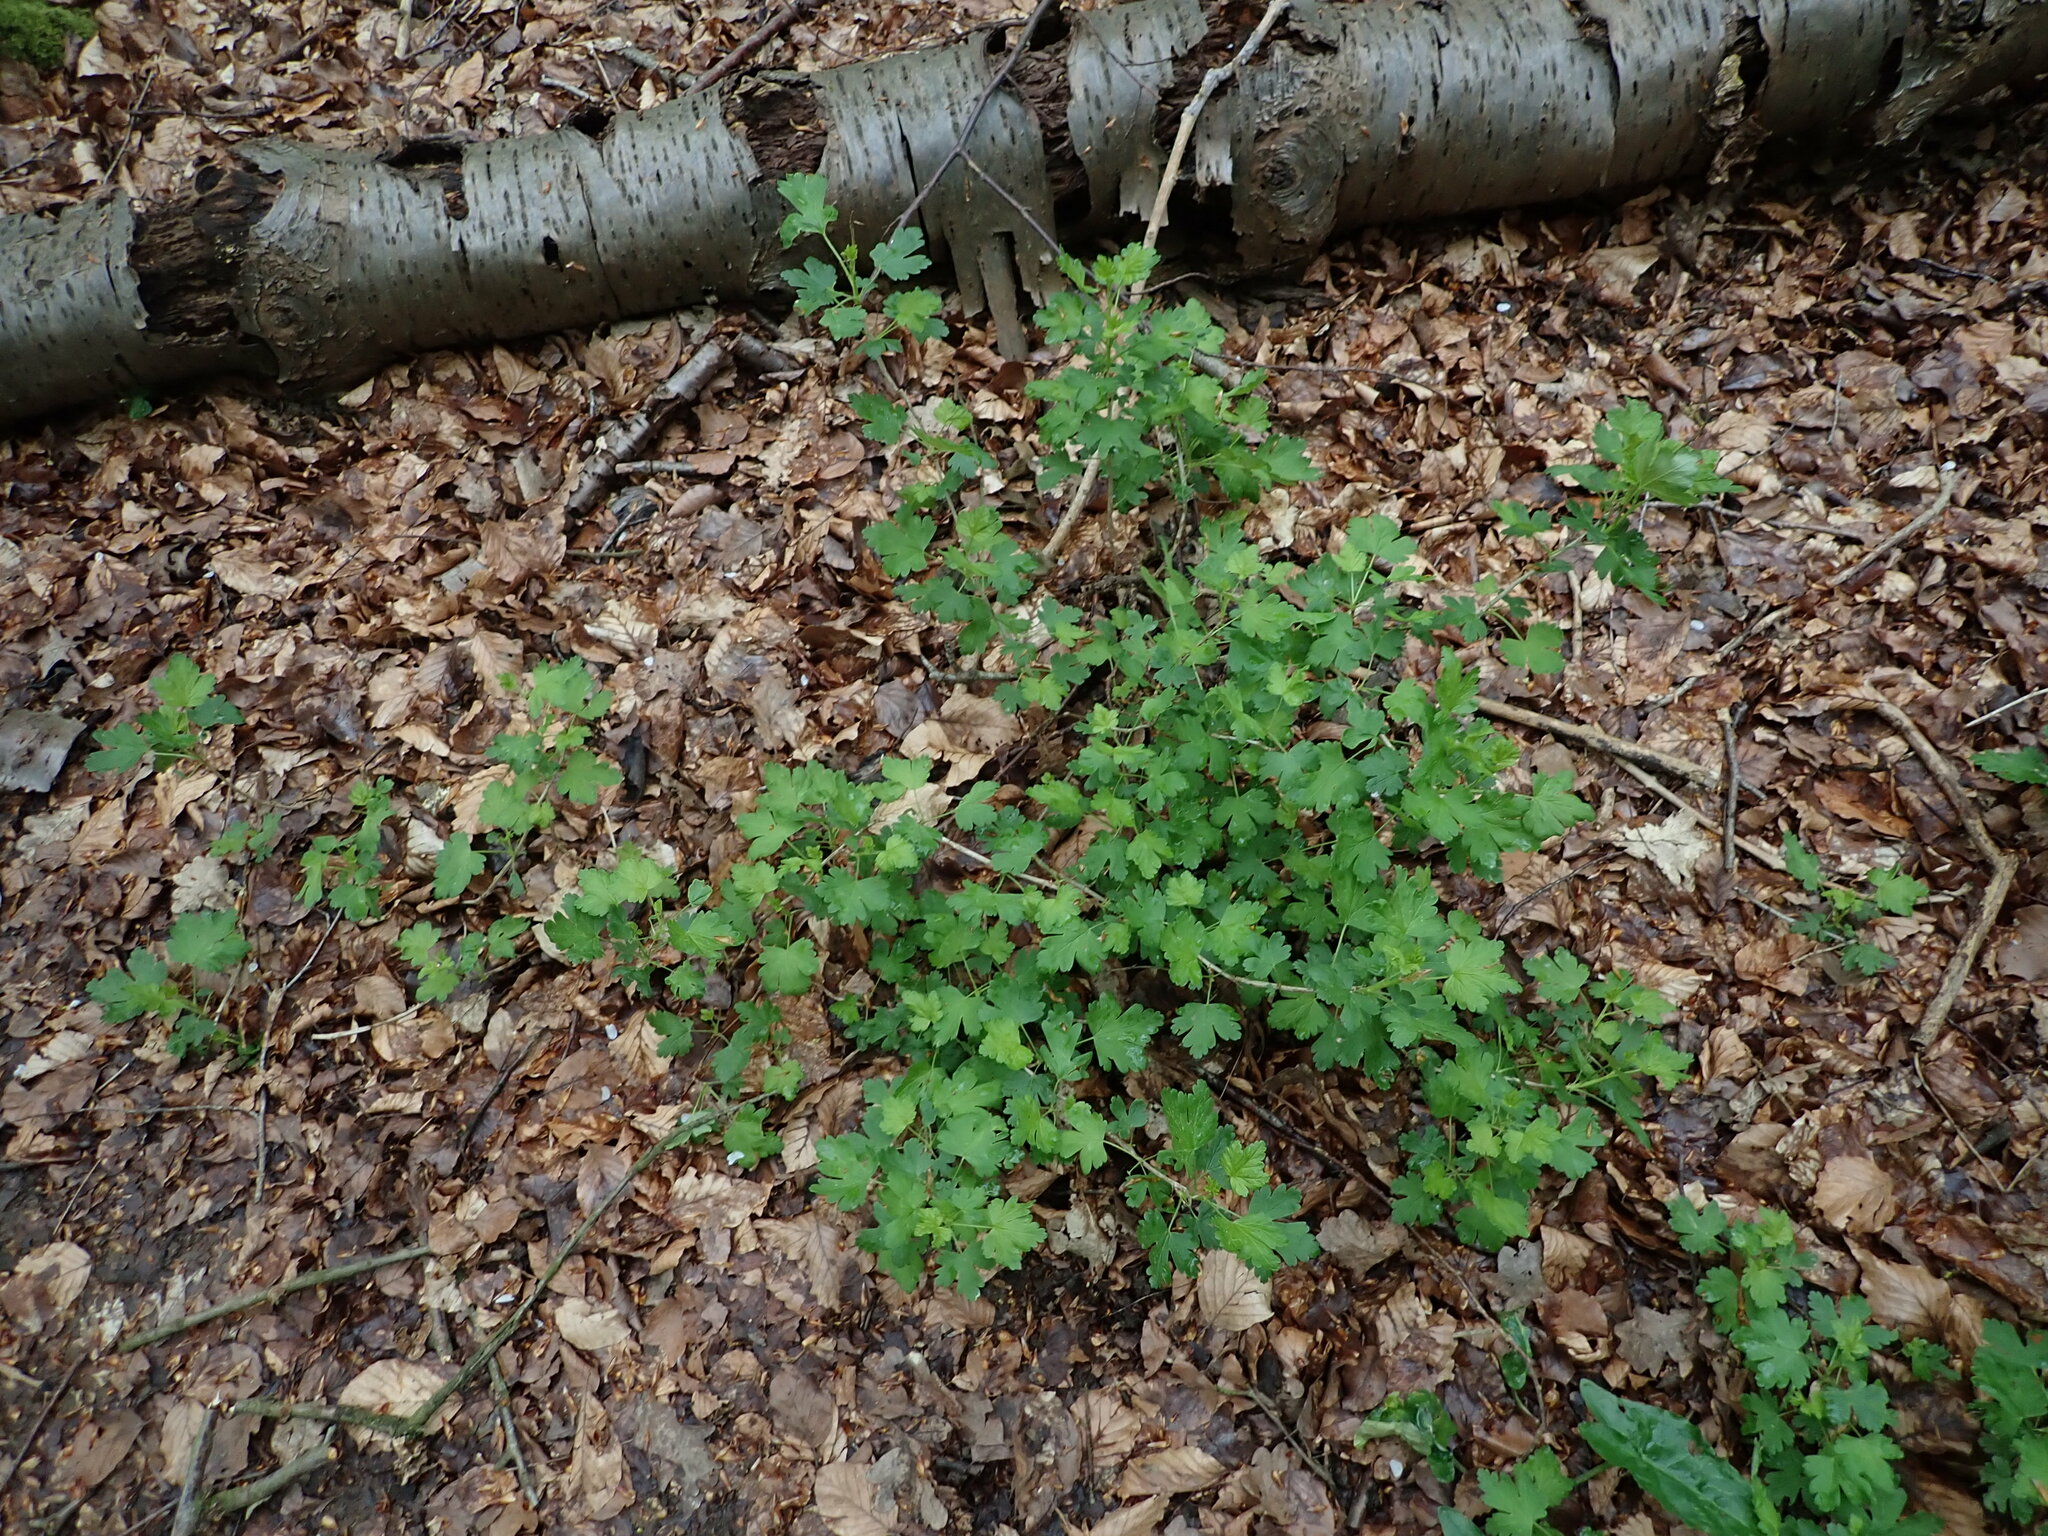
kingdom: Plantae
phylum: Tracheophyta
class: Magnoliopsida
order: Saxifragales
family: Grossulariaceae
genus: Ribes
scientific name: Ribes uva-crispa
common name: Gooseberry
